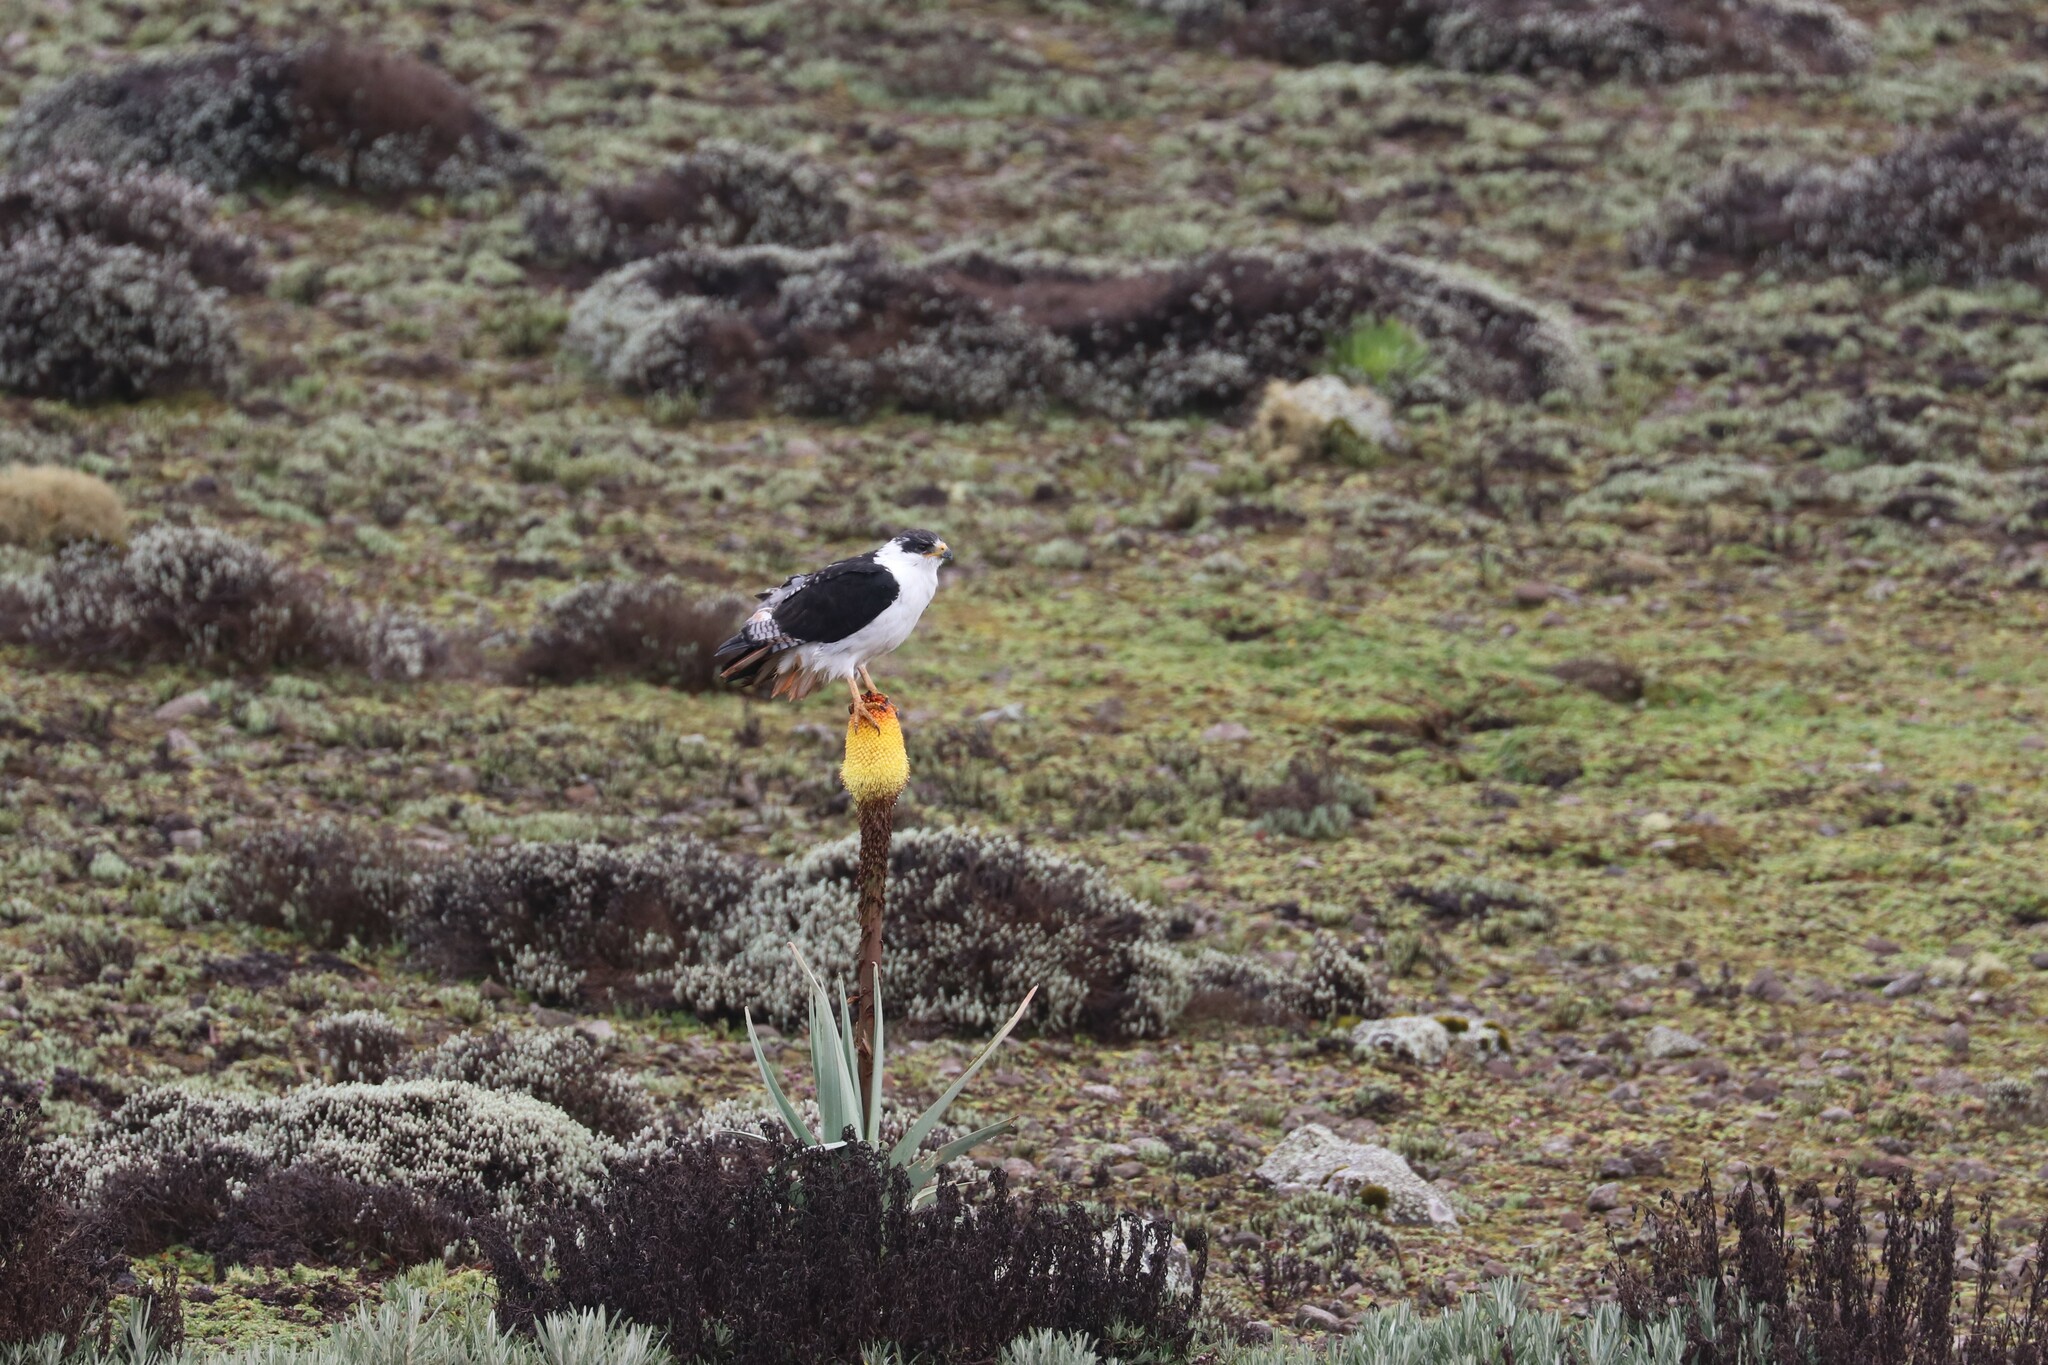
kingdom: Animalia
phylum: Chordata
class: Aves
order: Accipitriformes
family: Accipitridae
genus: Buteo
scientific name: Buteo augur
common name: Augur buzzard
